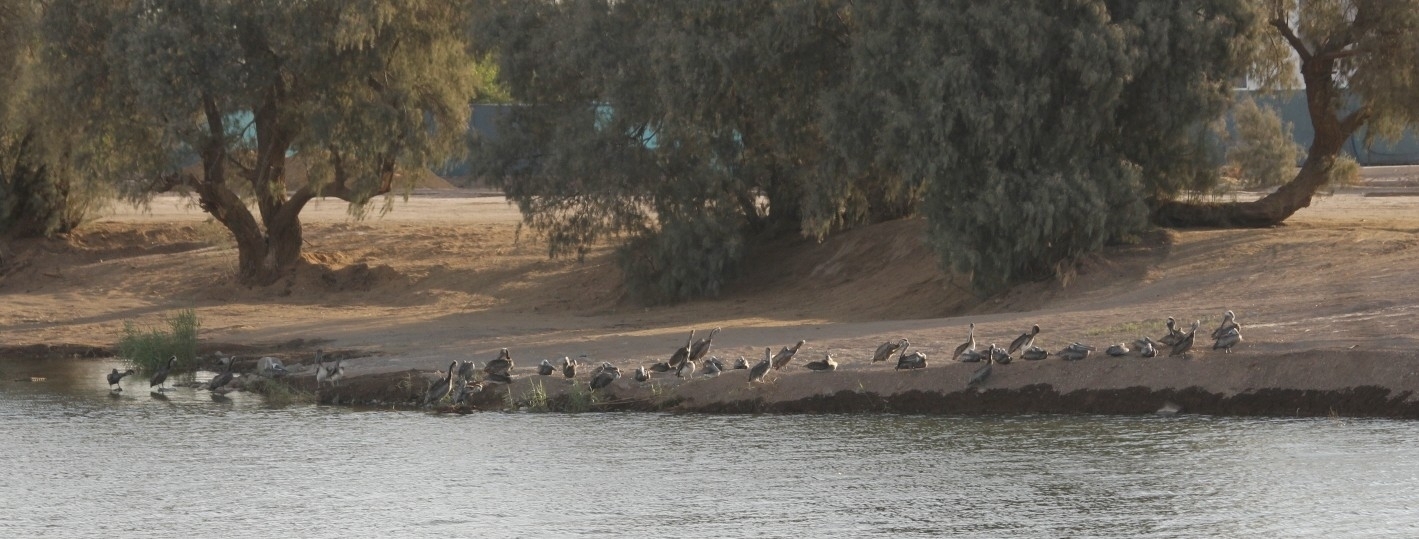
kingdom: Animalia
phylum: Chordata
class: Aves
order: Pelecaniformes
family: Pelecanidae
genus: Pelecanus
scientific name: Pelecanus occidentalis
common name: Brown pelican
